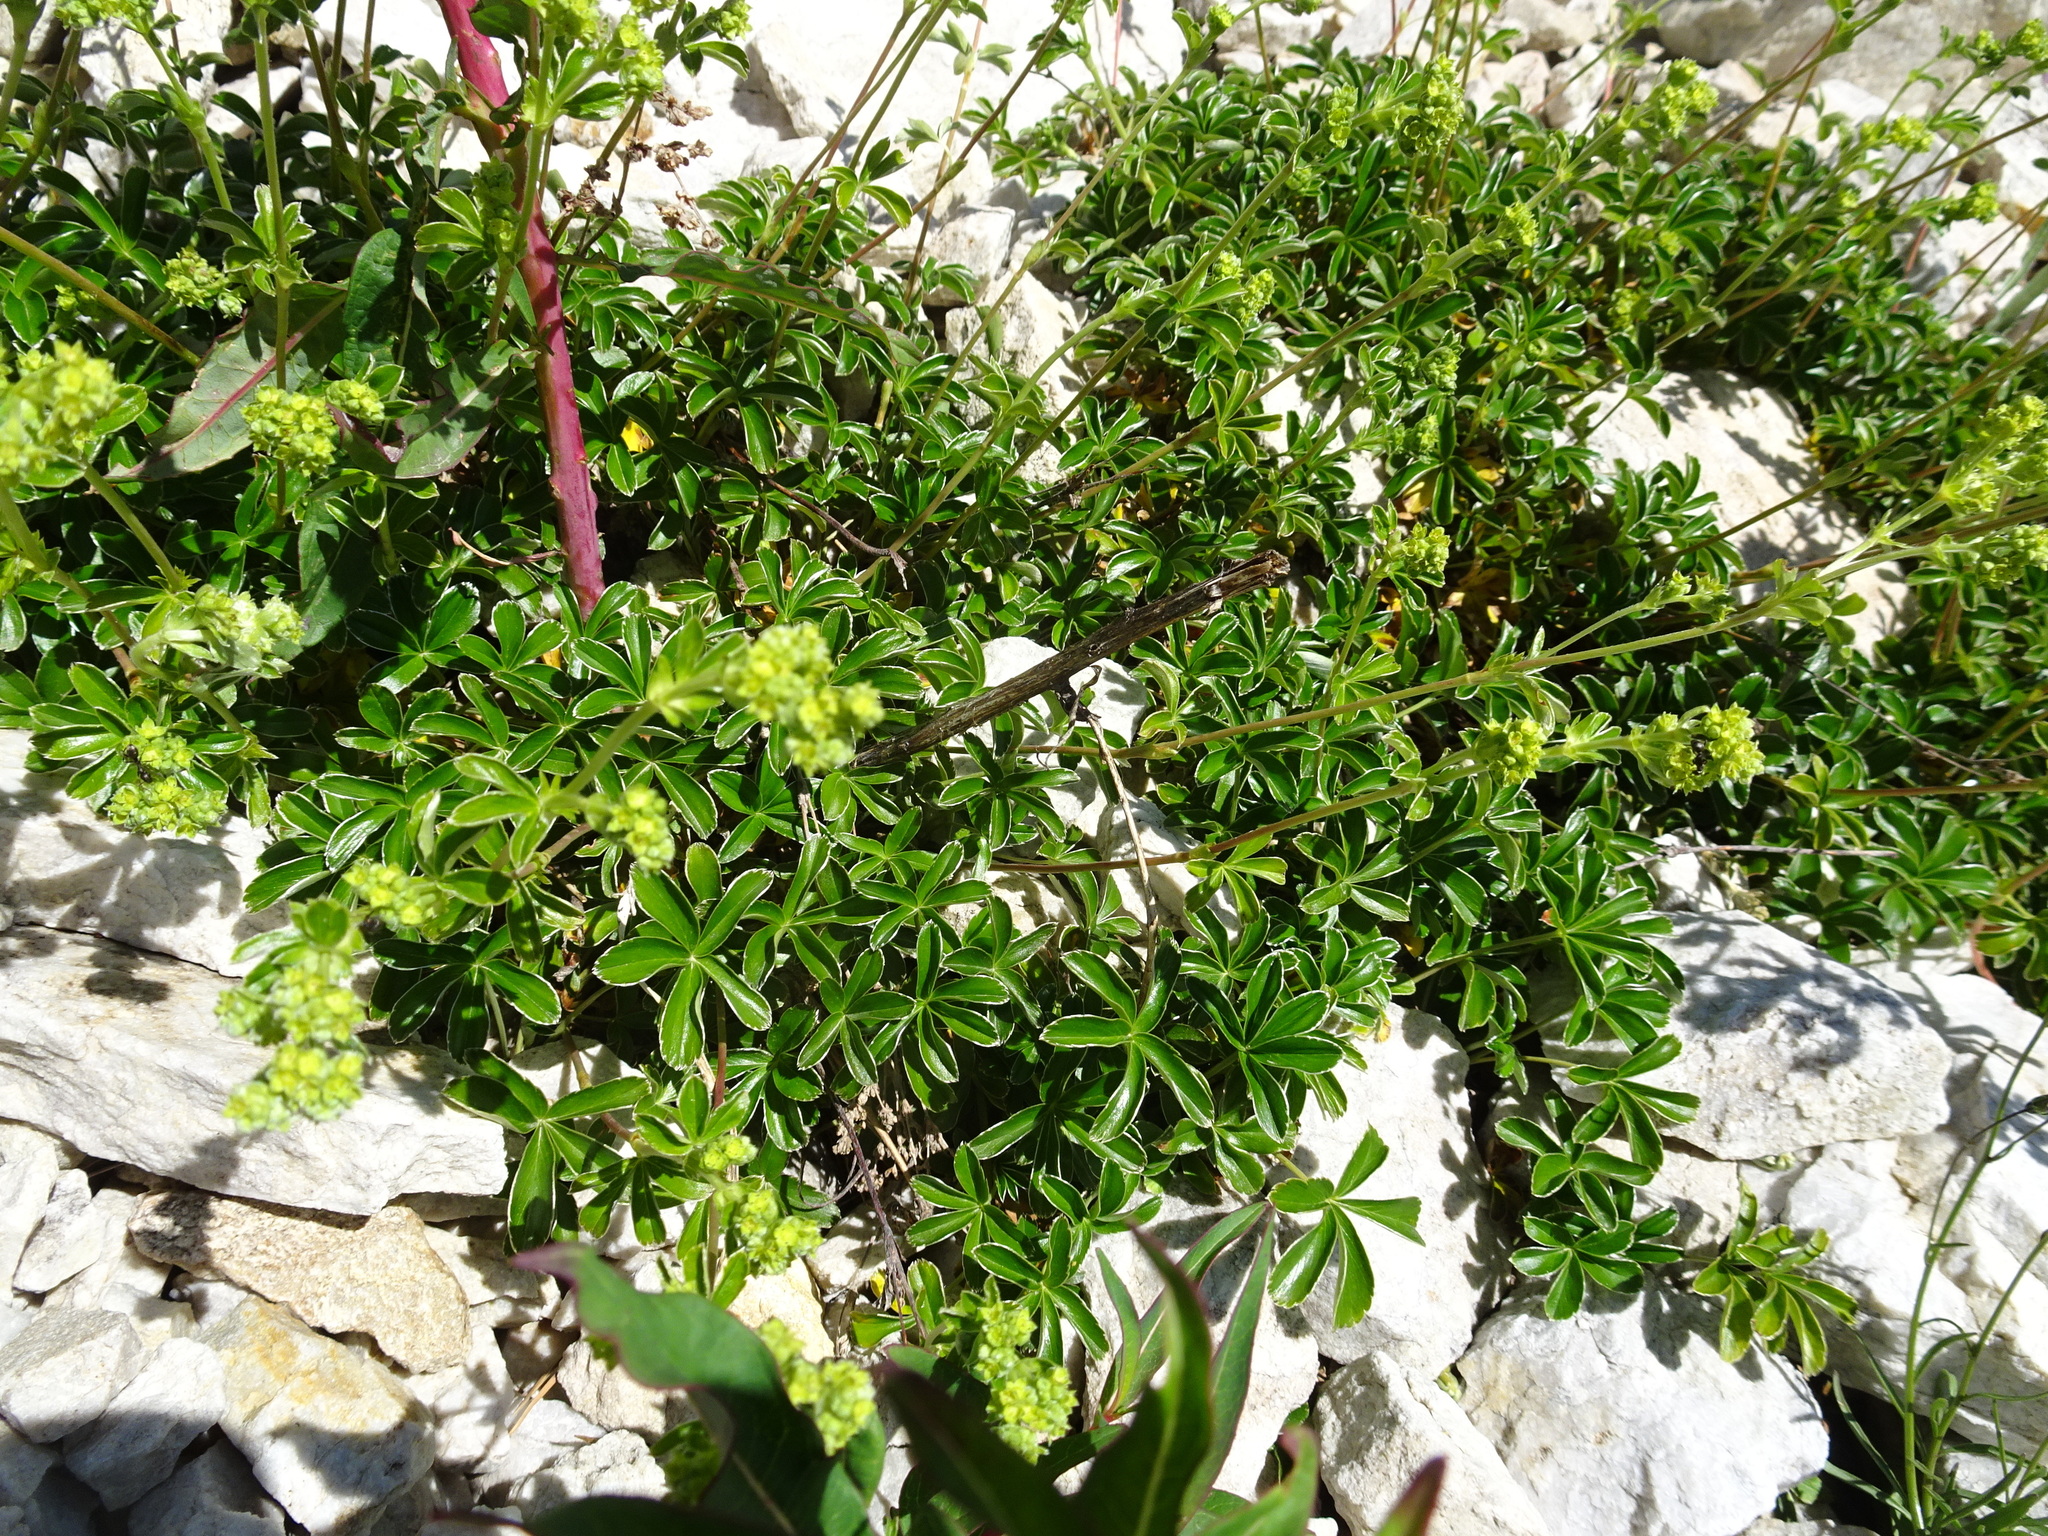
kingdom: Plantae
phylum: Tracheophyta
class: Magnoliopsida
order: Rosales
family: Rosaceae
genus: Alchemilla
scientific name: Alchemilla alpina
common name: Alpine lady's-mantle
